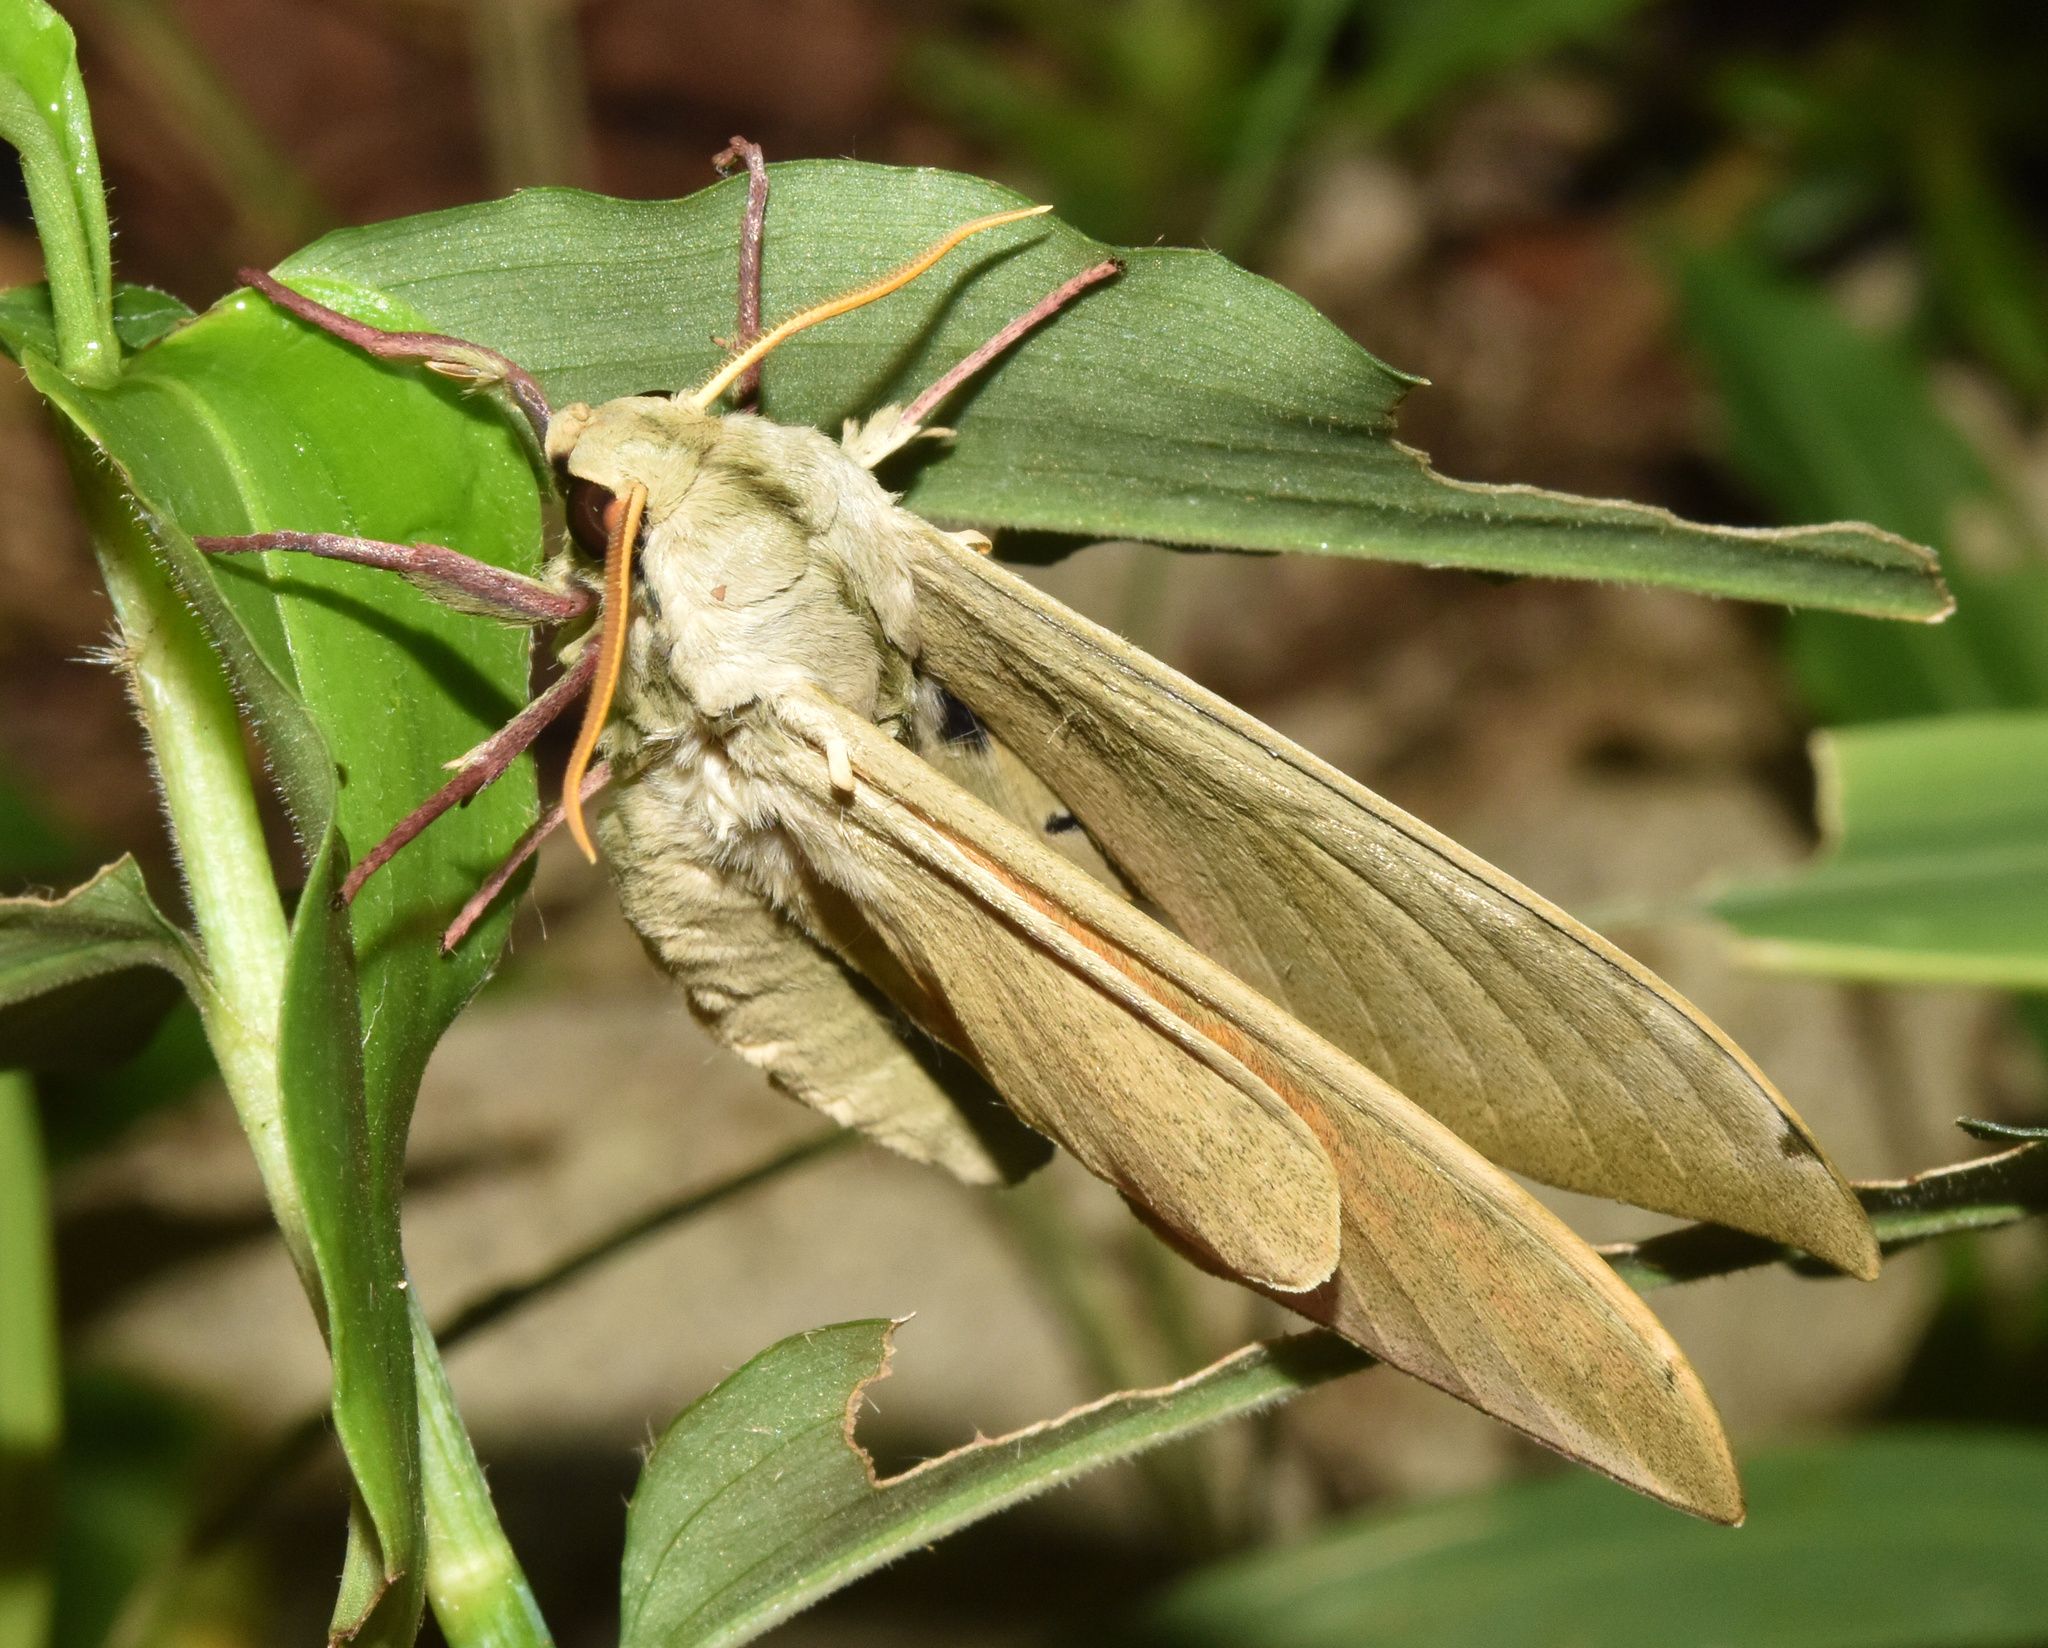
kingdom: Animalia
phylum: Arthropoda
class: Insecta
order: Lepidoptera
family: Sphingidae
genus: Pseudoclanis
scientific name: Pseudoclanis postica
